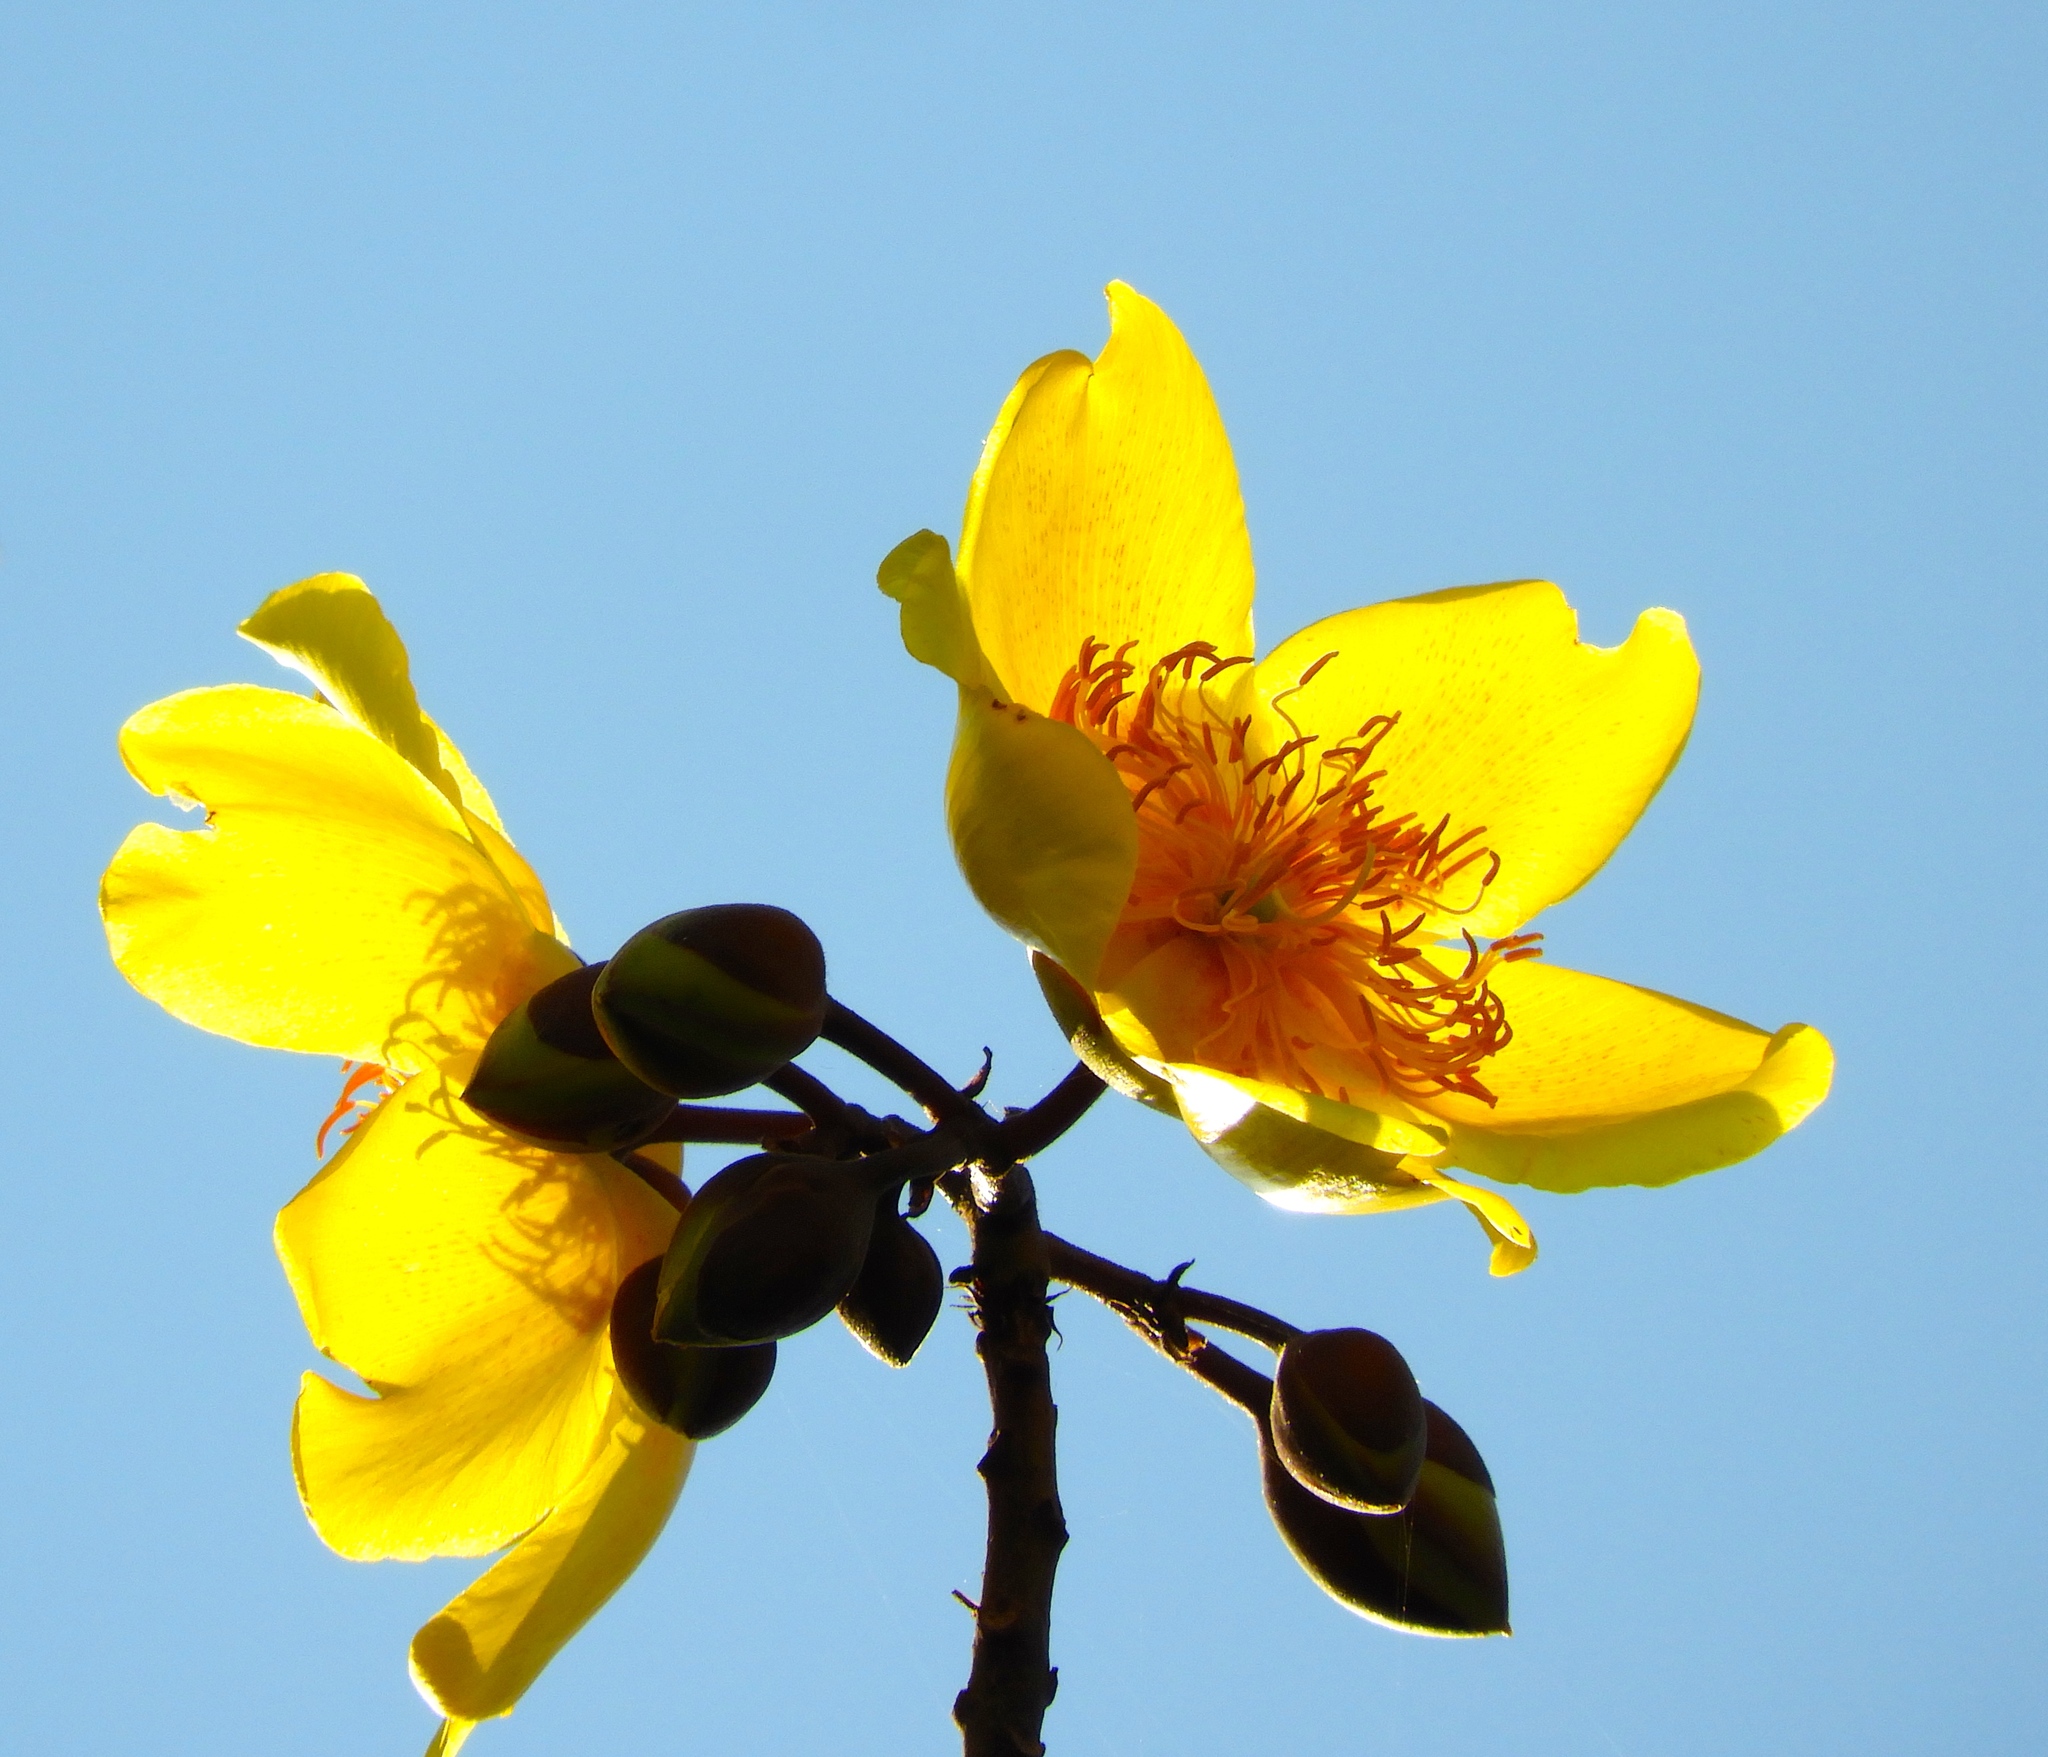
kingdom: Plantae
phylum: Tracheophyta
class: Magnoliopsida
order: Malvales
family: Cochlospermaceae
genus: Cochlospermum
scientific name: Cochlospermum vitifolium
